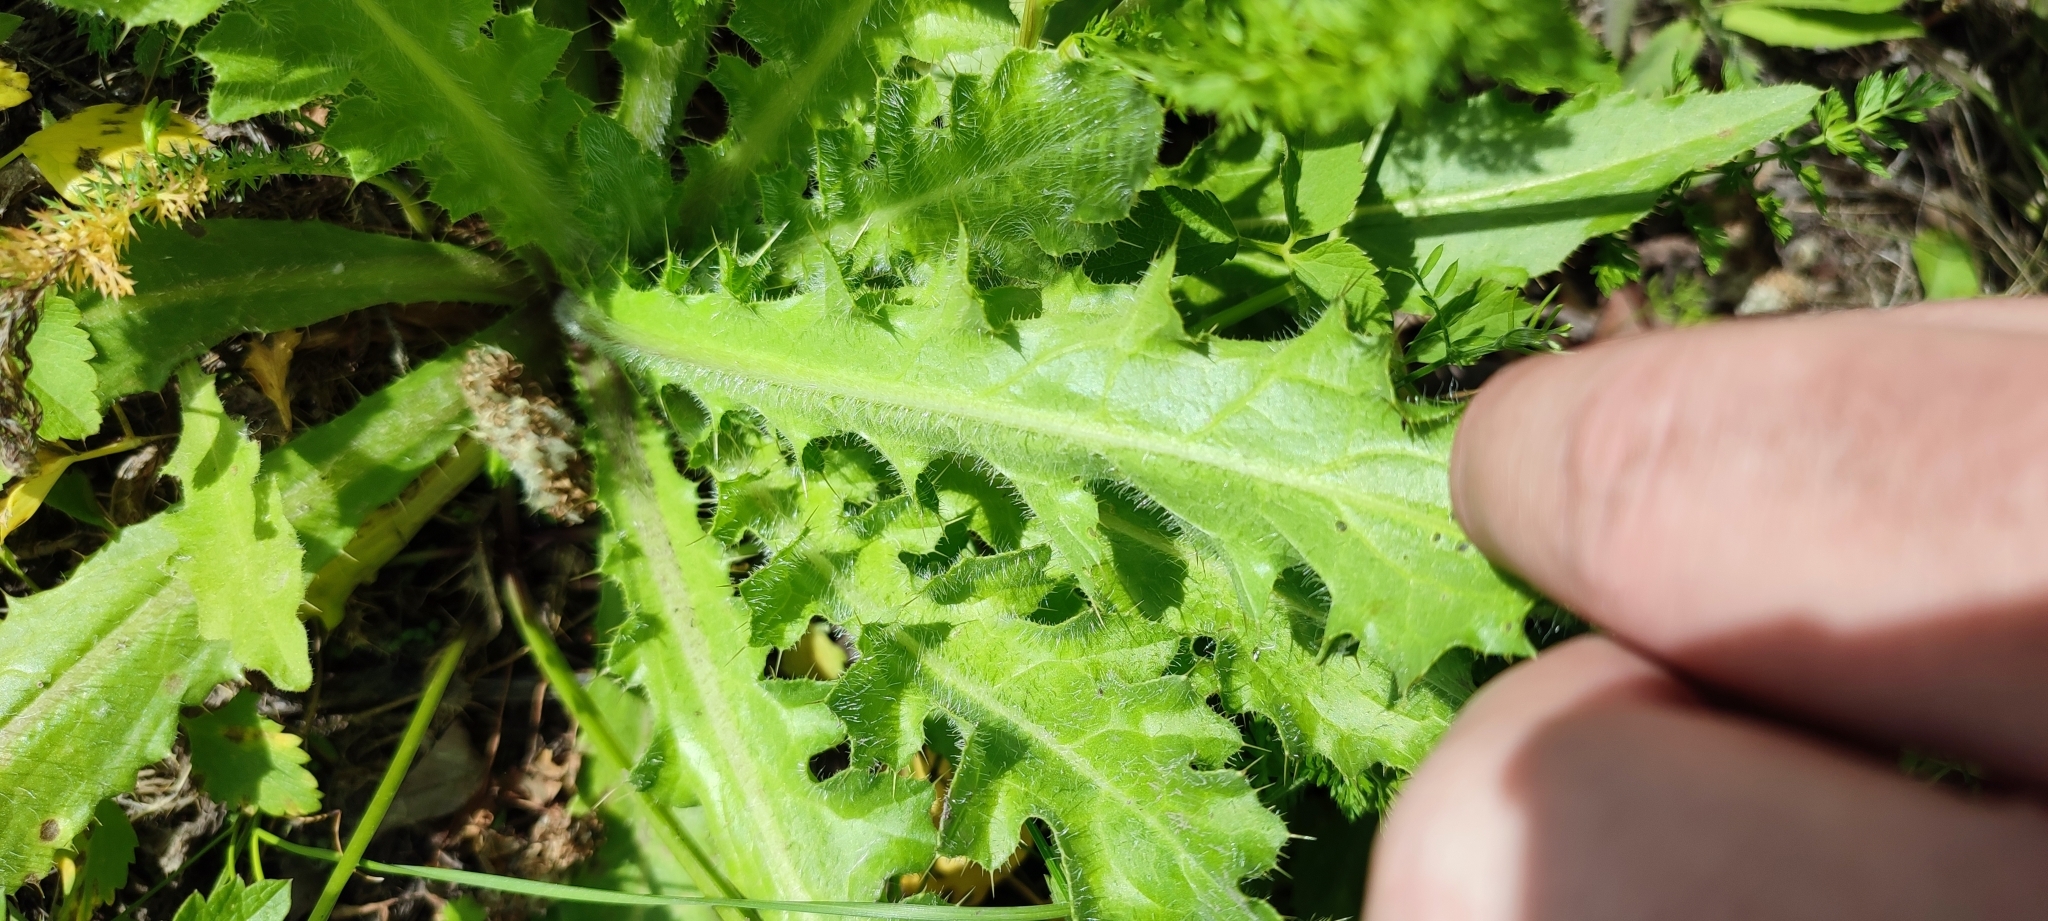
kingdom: Plantae
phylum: Tracheophyta
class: Magnoliopsida
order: Asterales
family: Asteraceae
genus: Cirsium
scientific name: Cirsium esculentum
